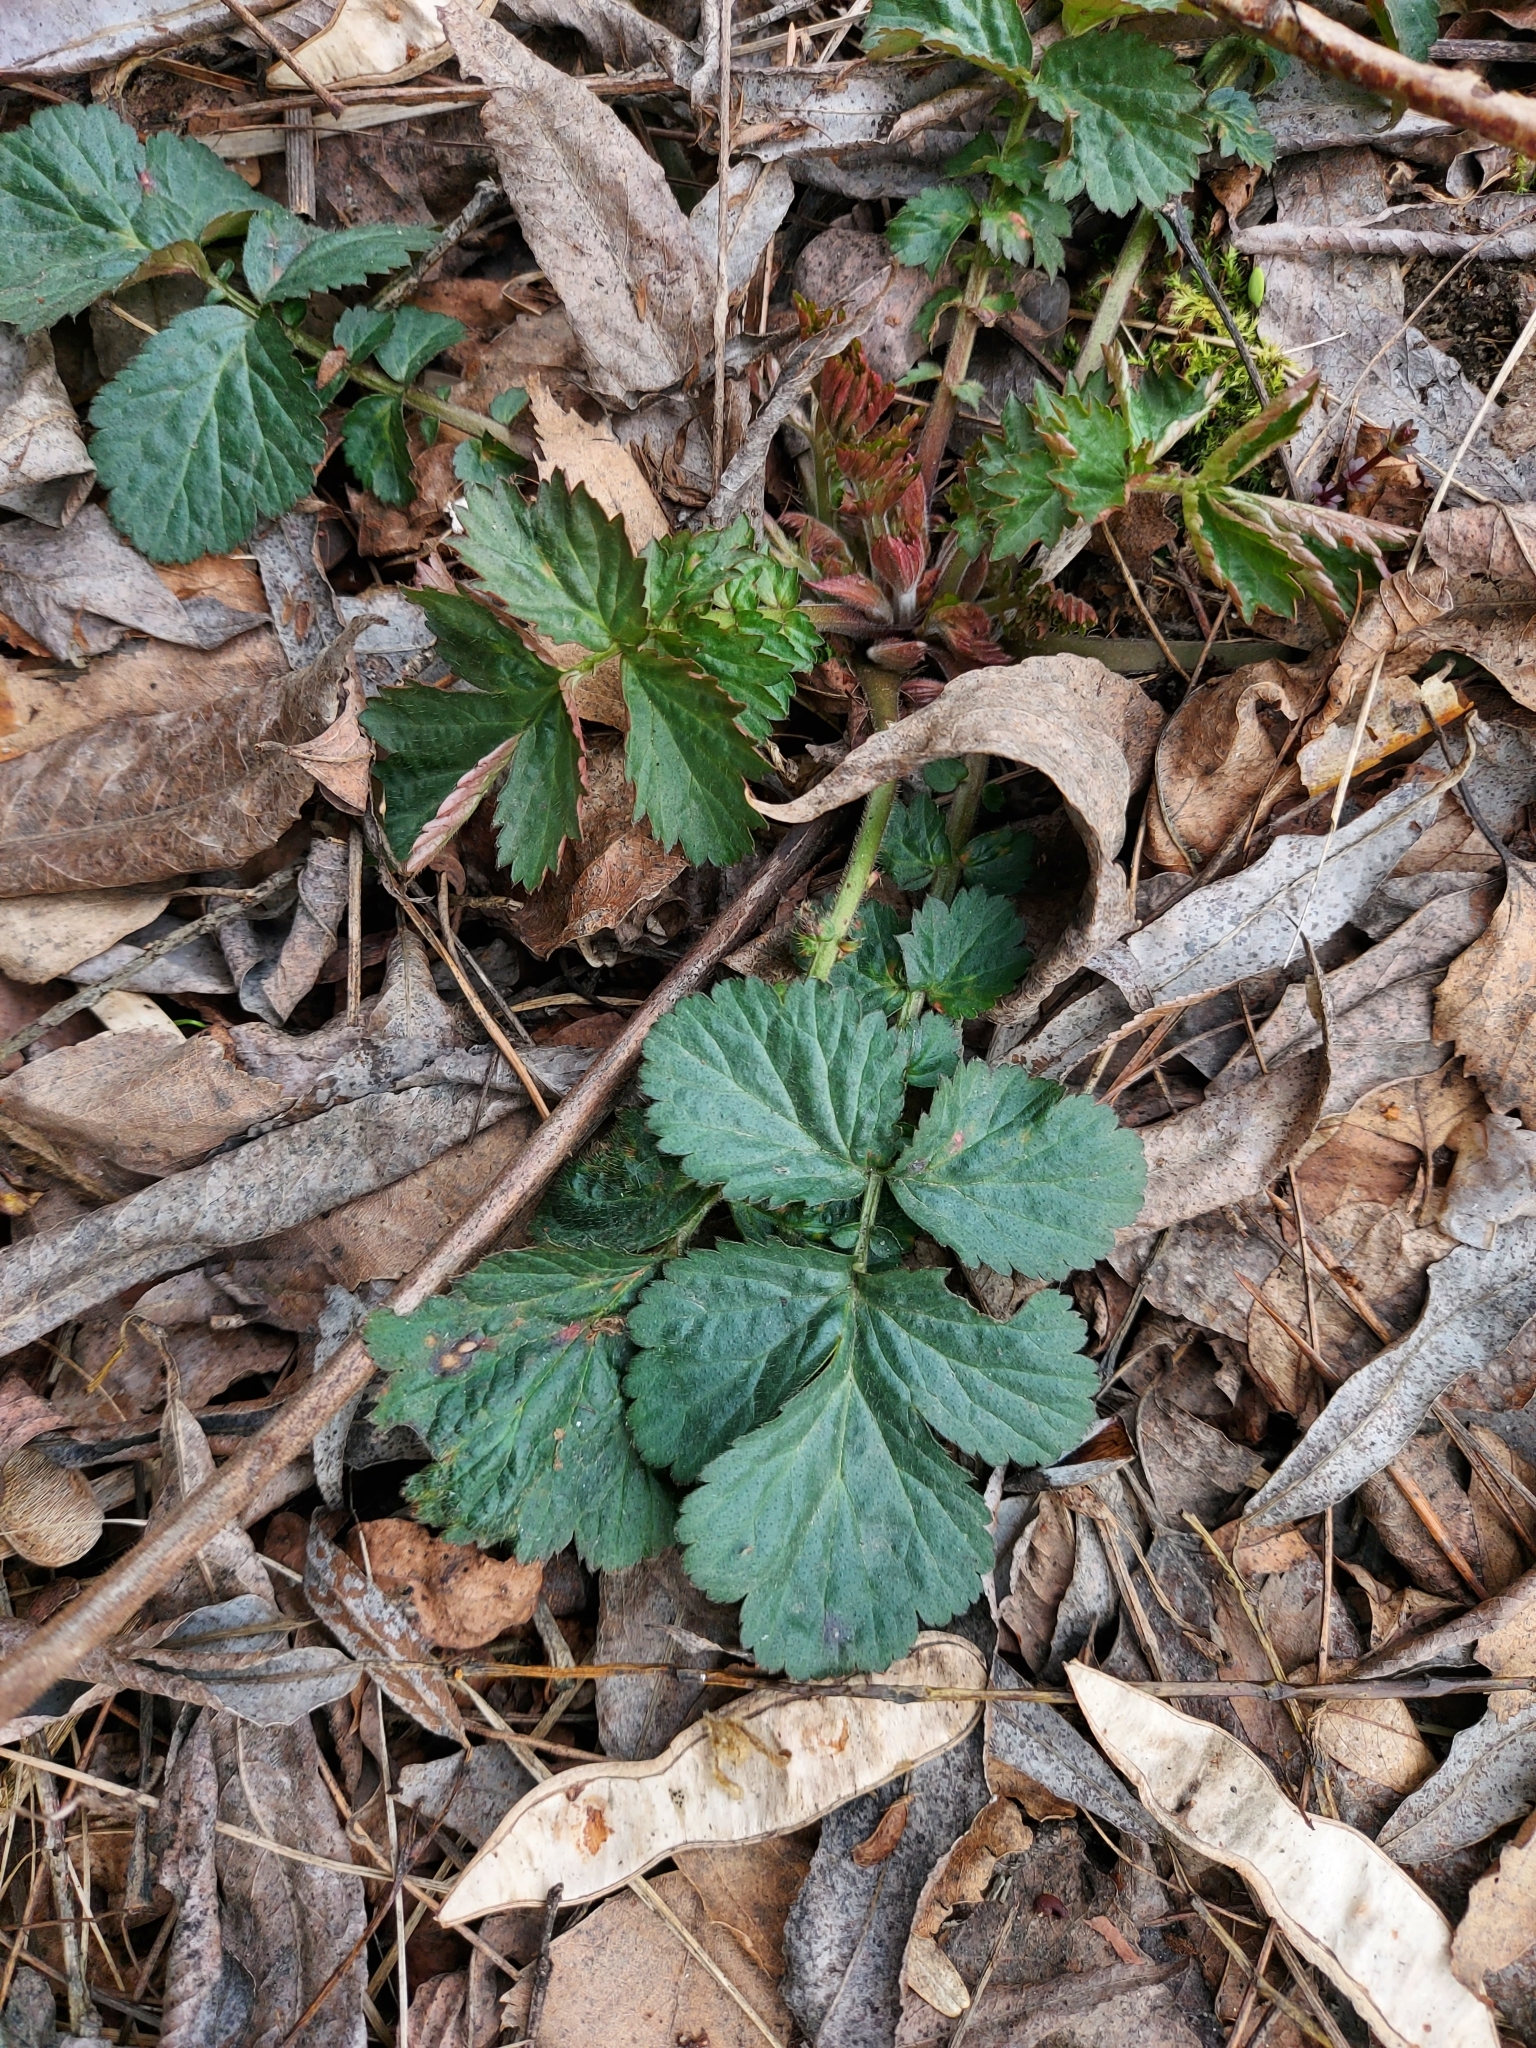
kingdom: Plantae
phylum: Tracheophyta
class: Magnoliopsida
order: Rosales
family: Rosaceae
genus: Geum
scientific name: Geum urbanum
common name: Wood avens
